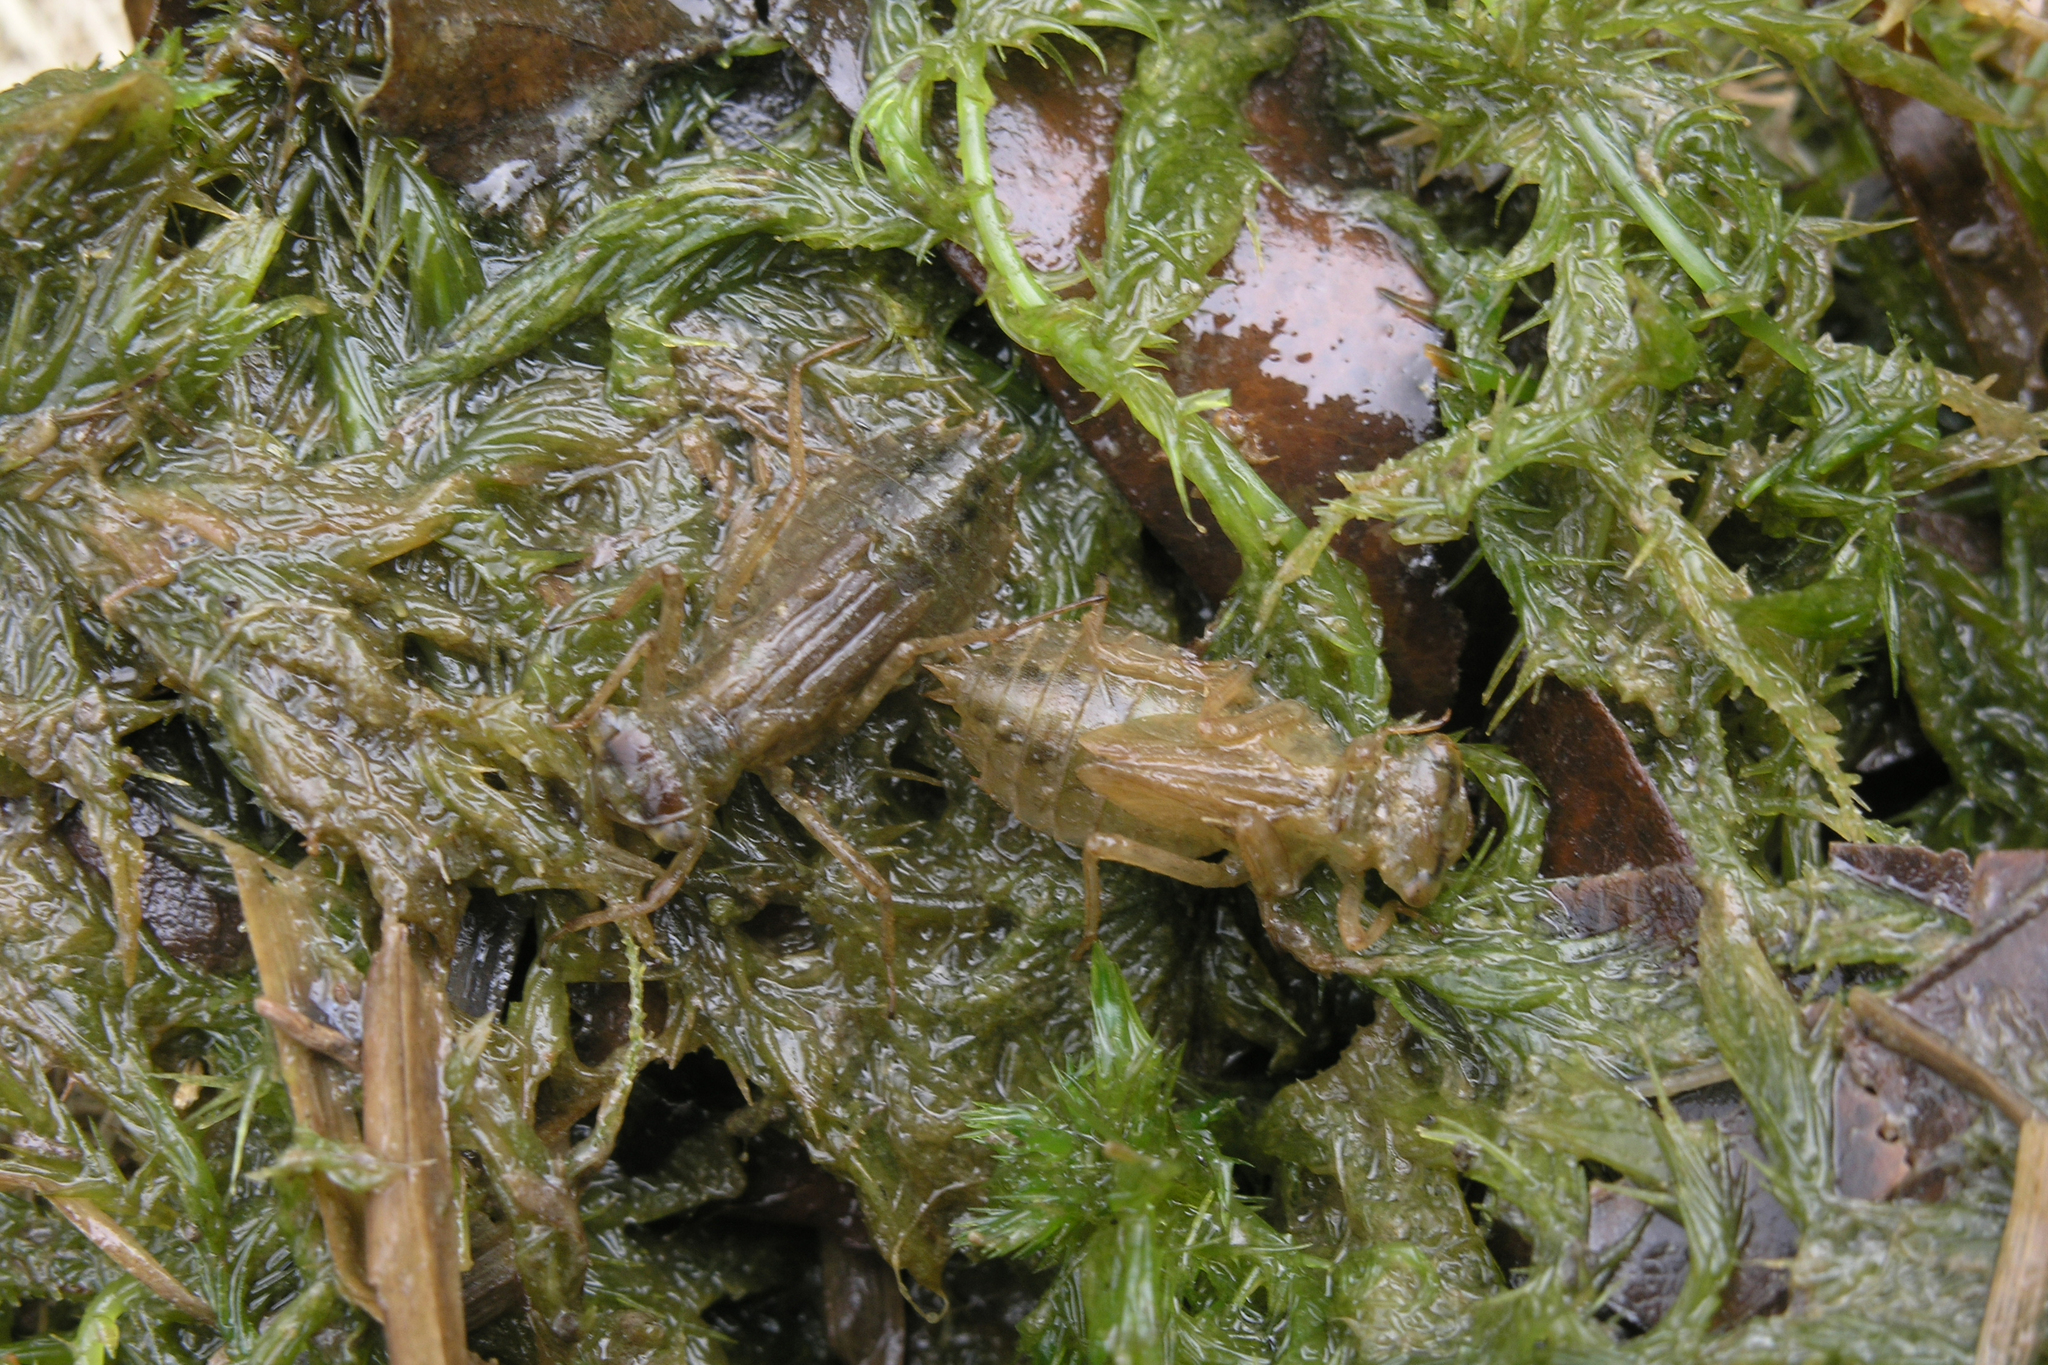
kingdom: Animalia
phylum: Arthropoda
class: Insecta
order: Odonata
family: Libellulidae
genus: Leucorrhinia
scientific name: Leucorrhinia dubia
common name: White-faced darter
